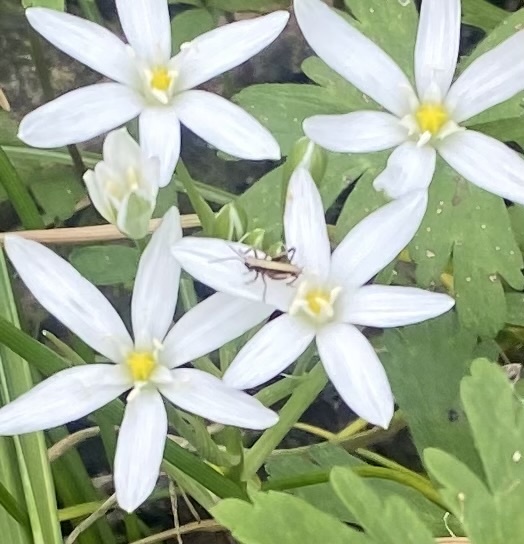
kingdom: Animalia
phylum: Arthropoda
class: Insecta
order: Orthoptera
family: Tettigoniidae
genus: Pholidoptera
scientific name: Pholidoptera griseoaptera
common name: Dark bush-cricket
